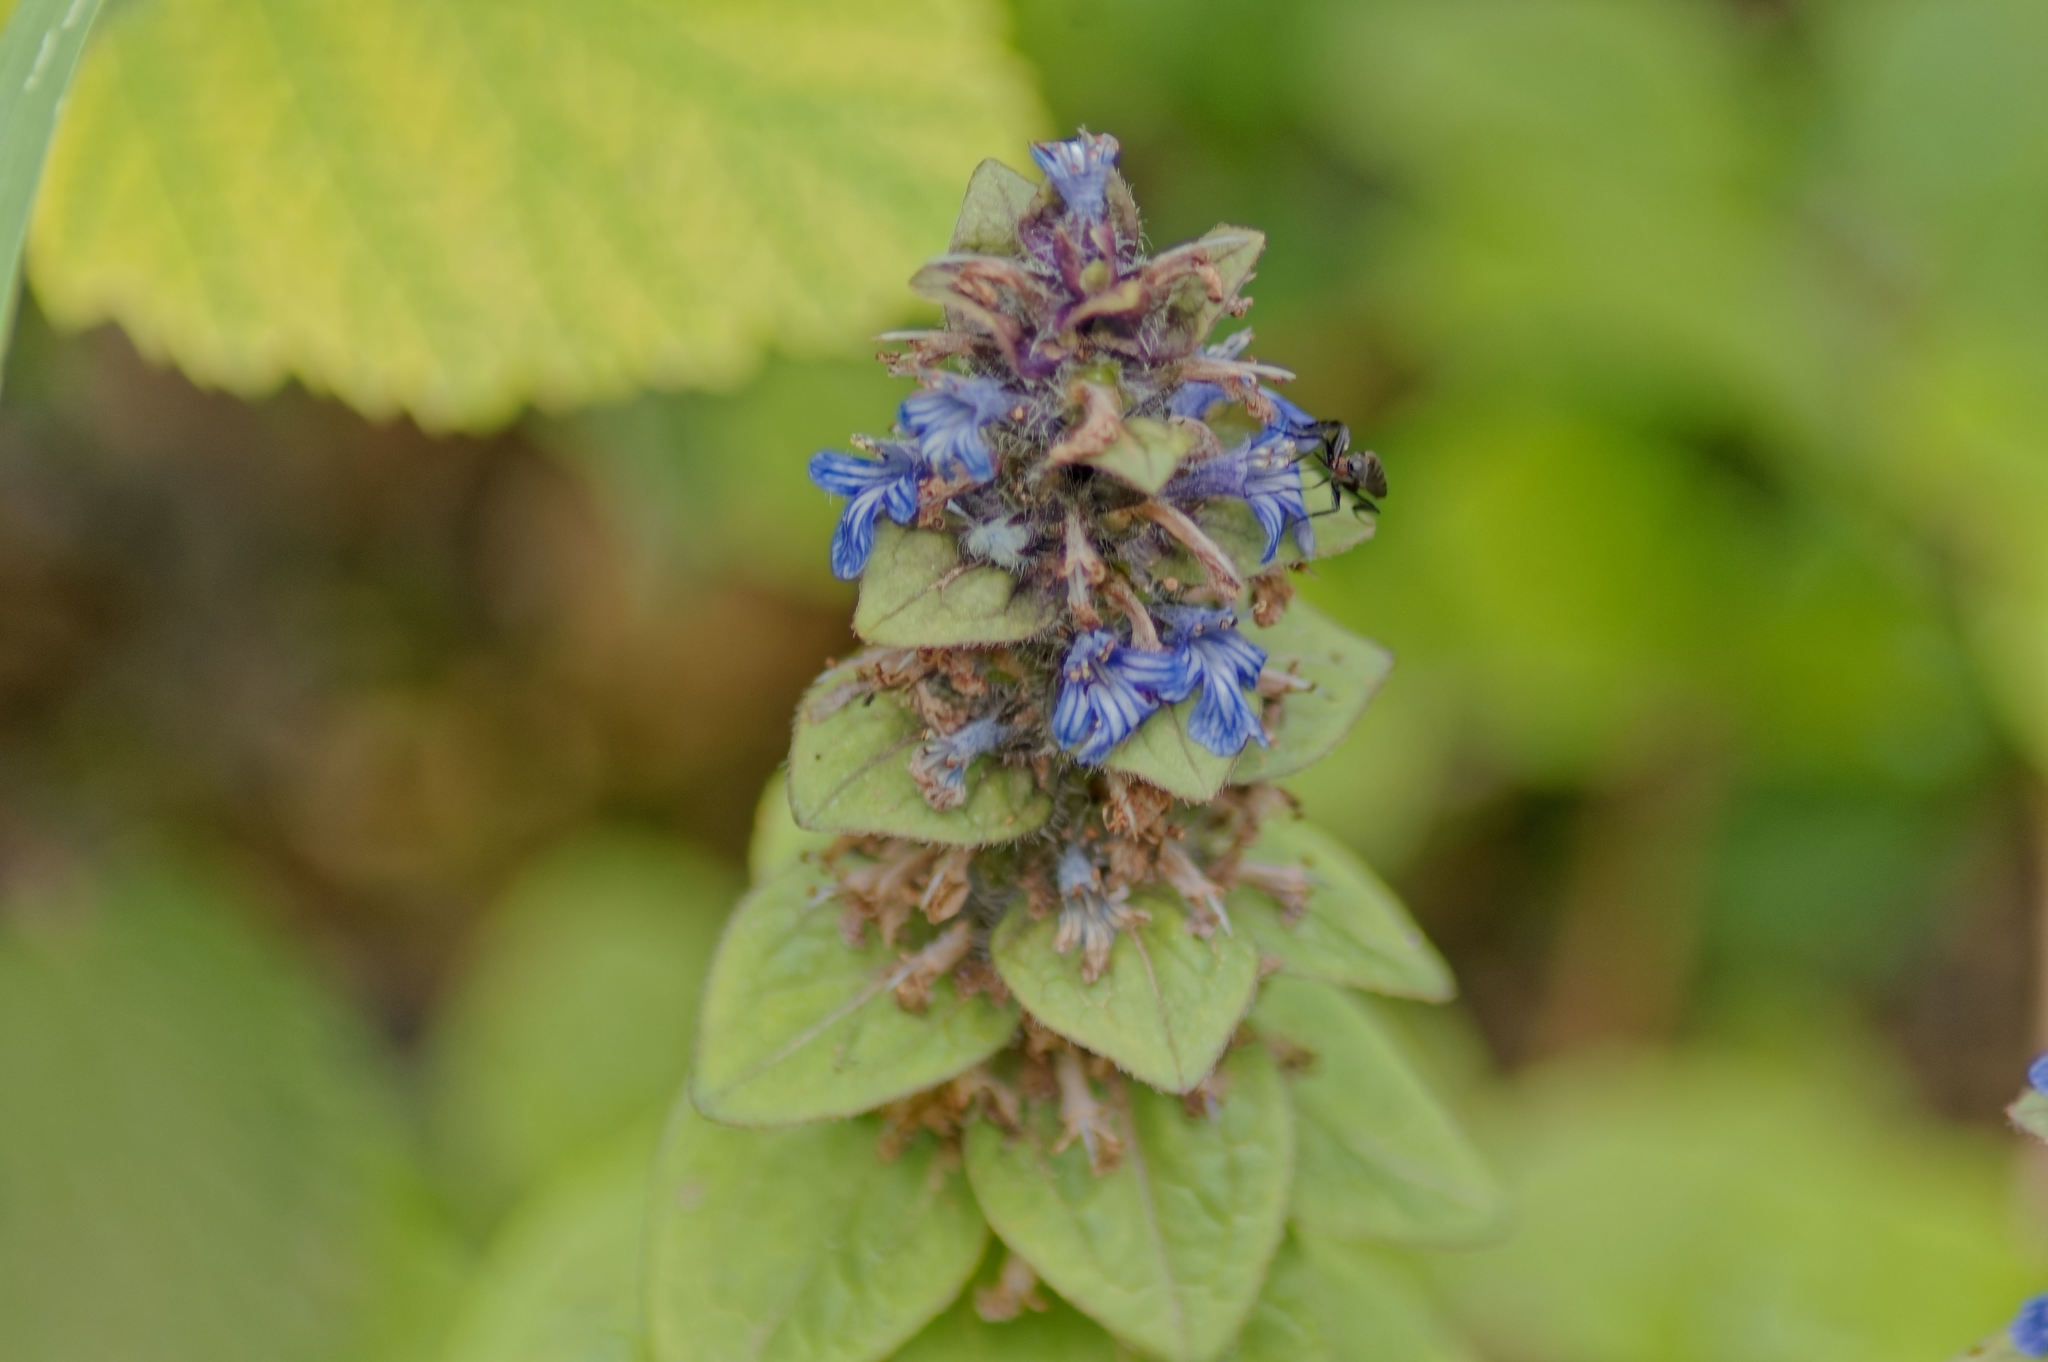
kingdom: Plantae
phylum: Tracheophyta
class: Magnoliopsida
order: Lamiales
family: Lamiaceae
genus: Ajuga
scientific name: Ajuga reptans
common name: Bugle
